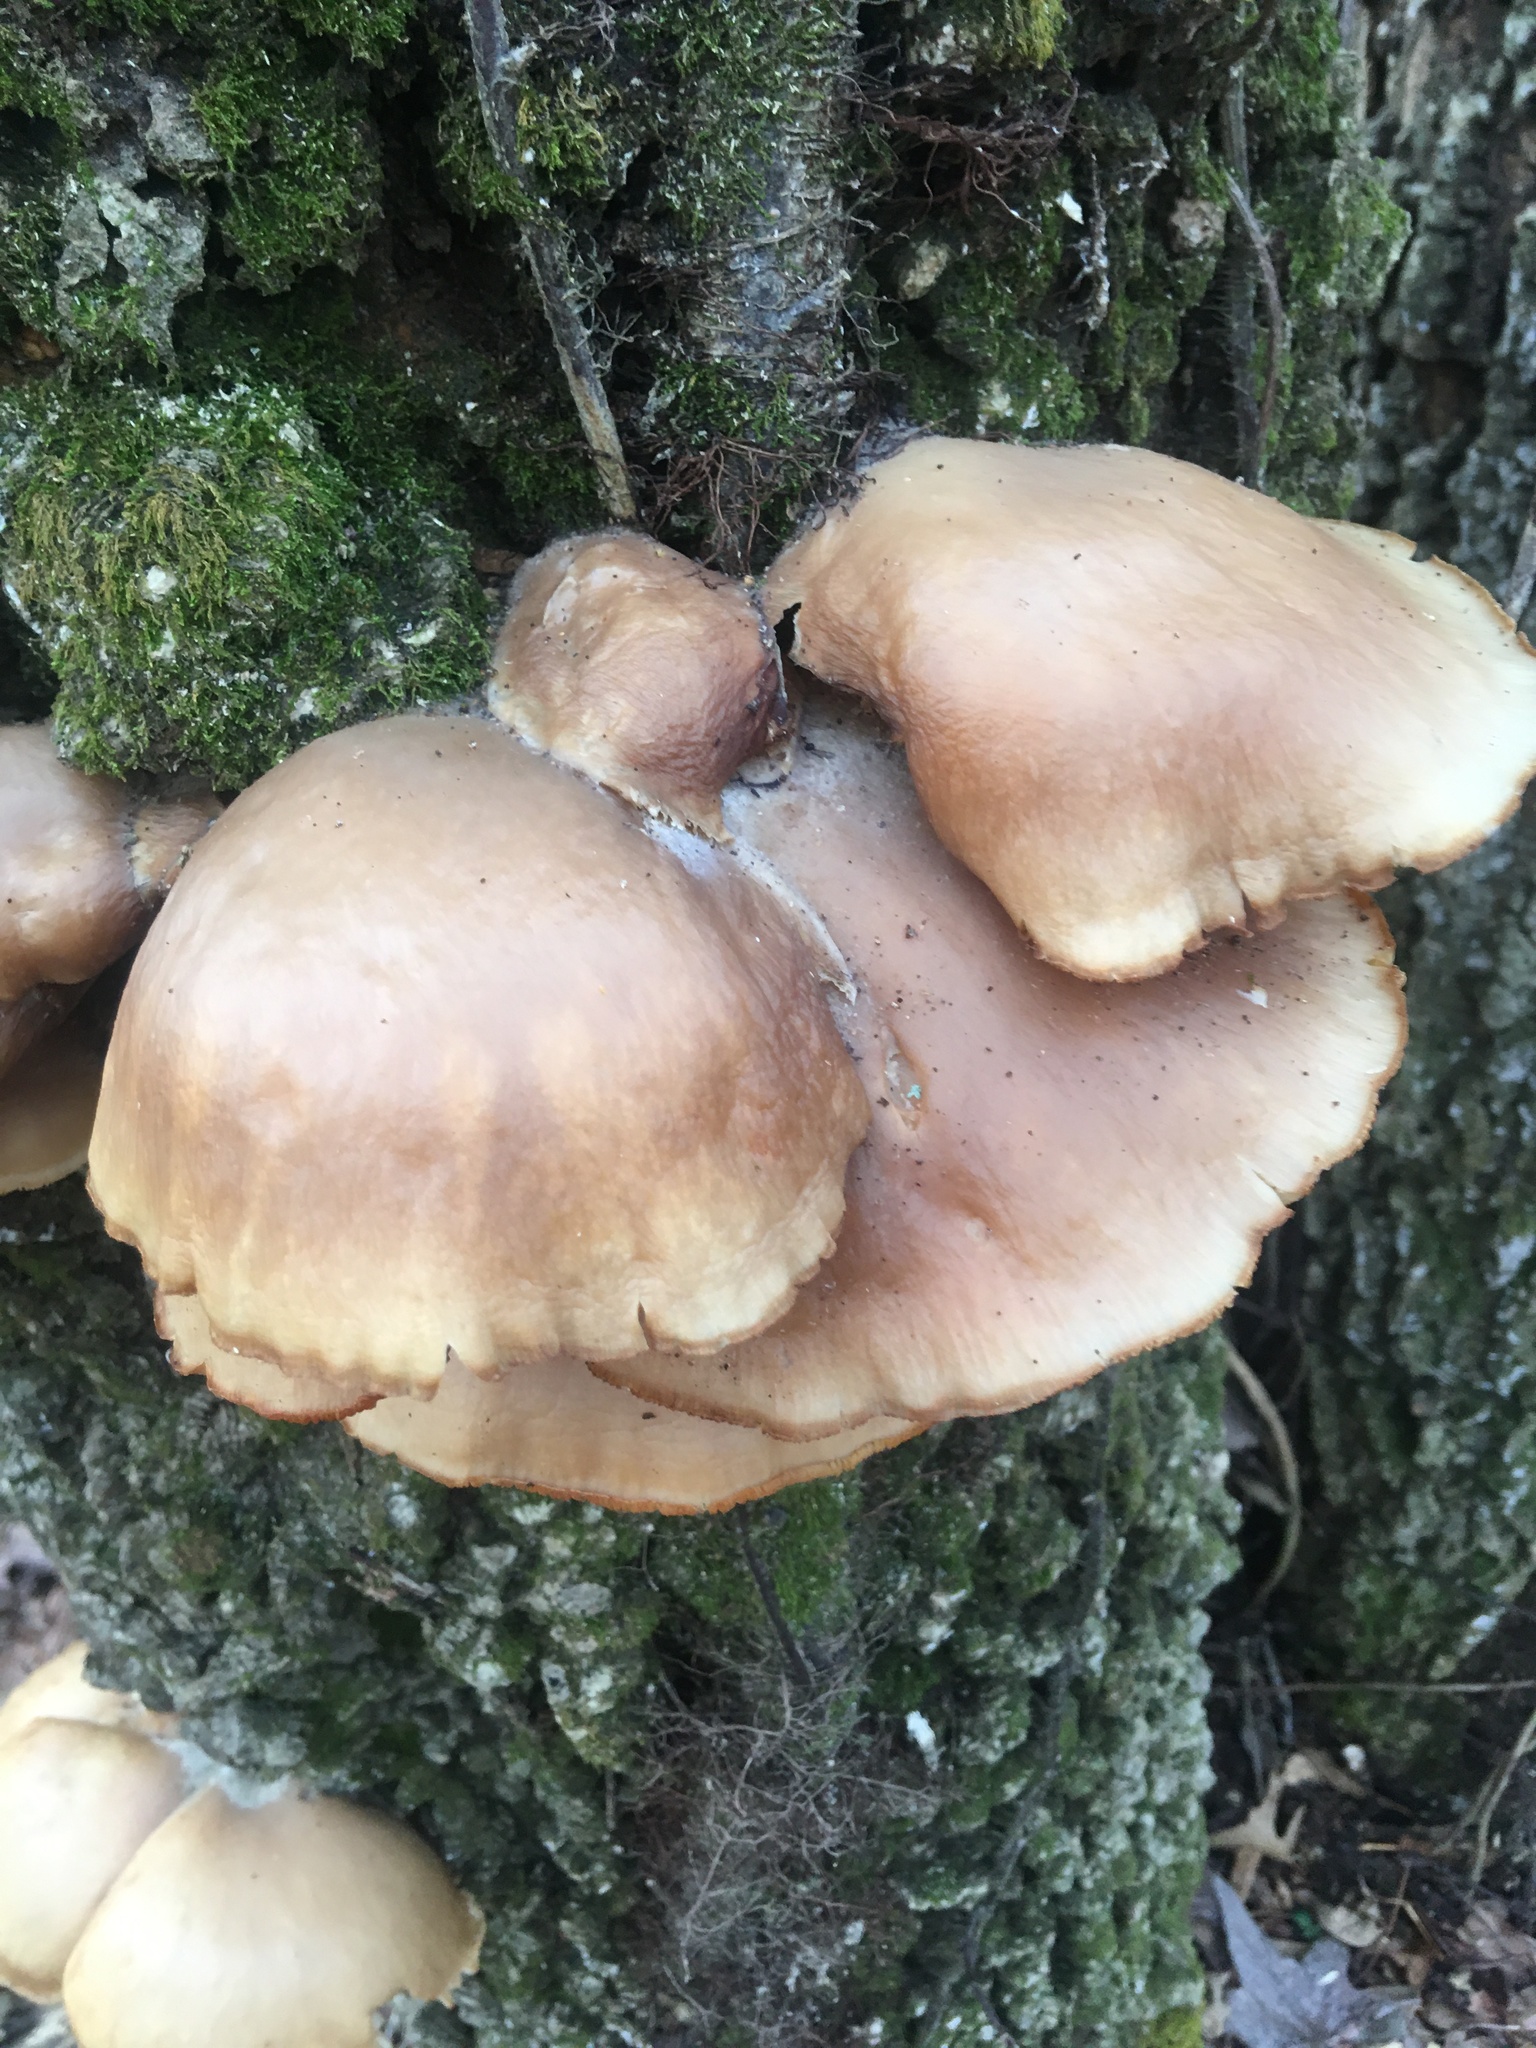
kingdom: Fungi
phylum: Basidiomycota
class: Agaricomycetes
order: Agaricales
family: Pleurotaceae
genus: Pleurotus
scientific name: Pleurotus ostreatus
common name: Oyster mushroom
